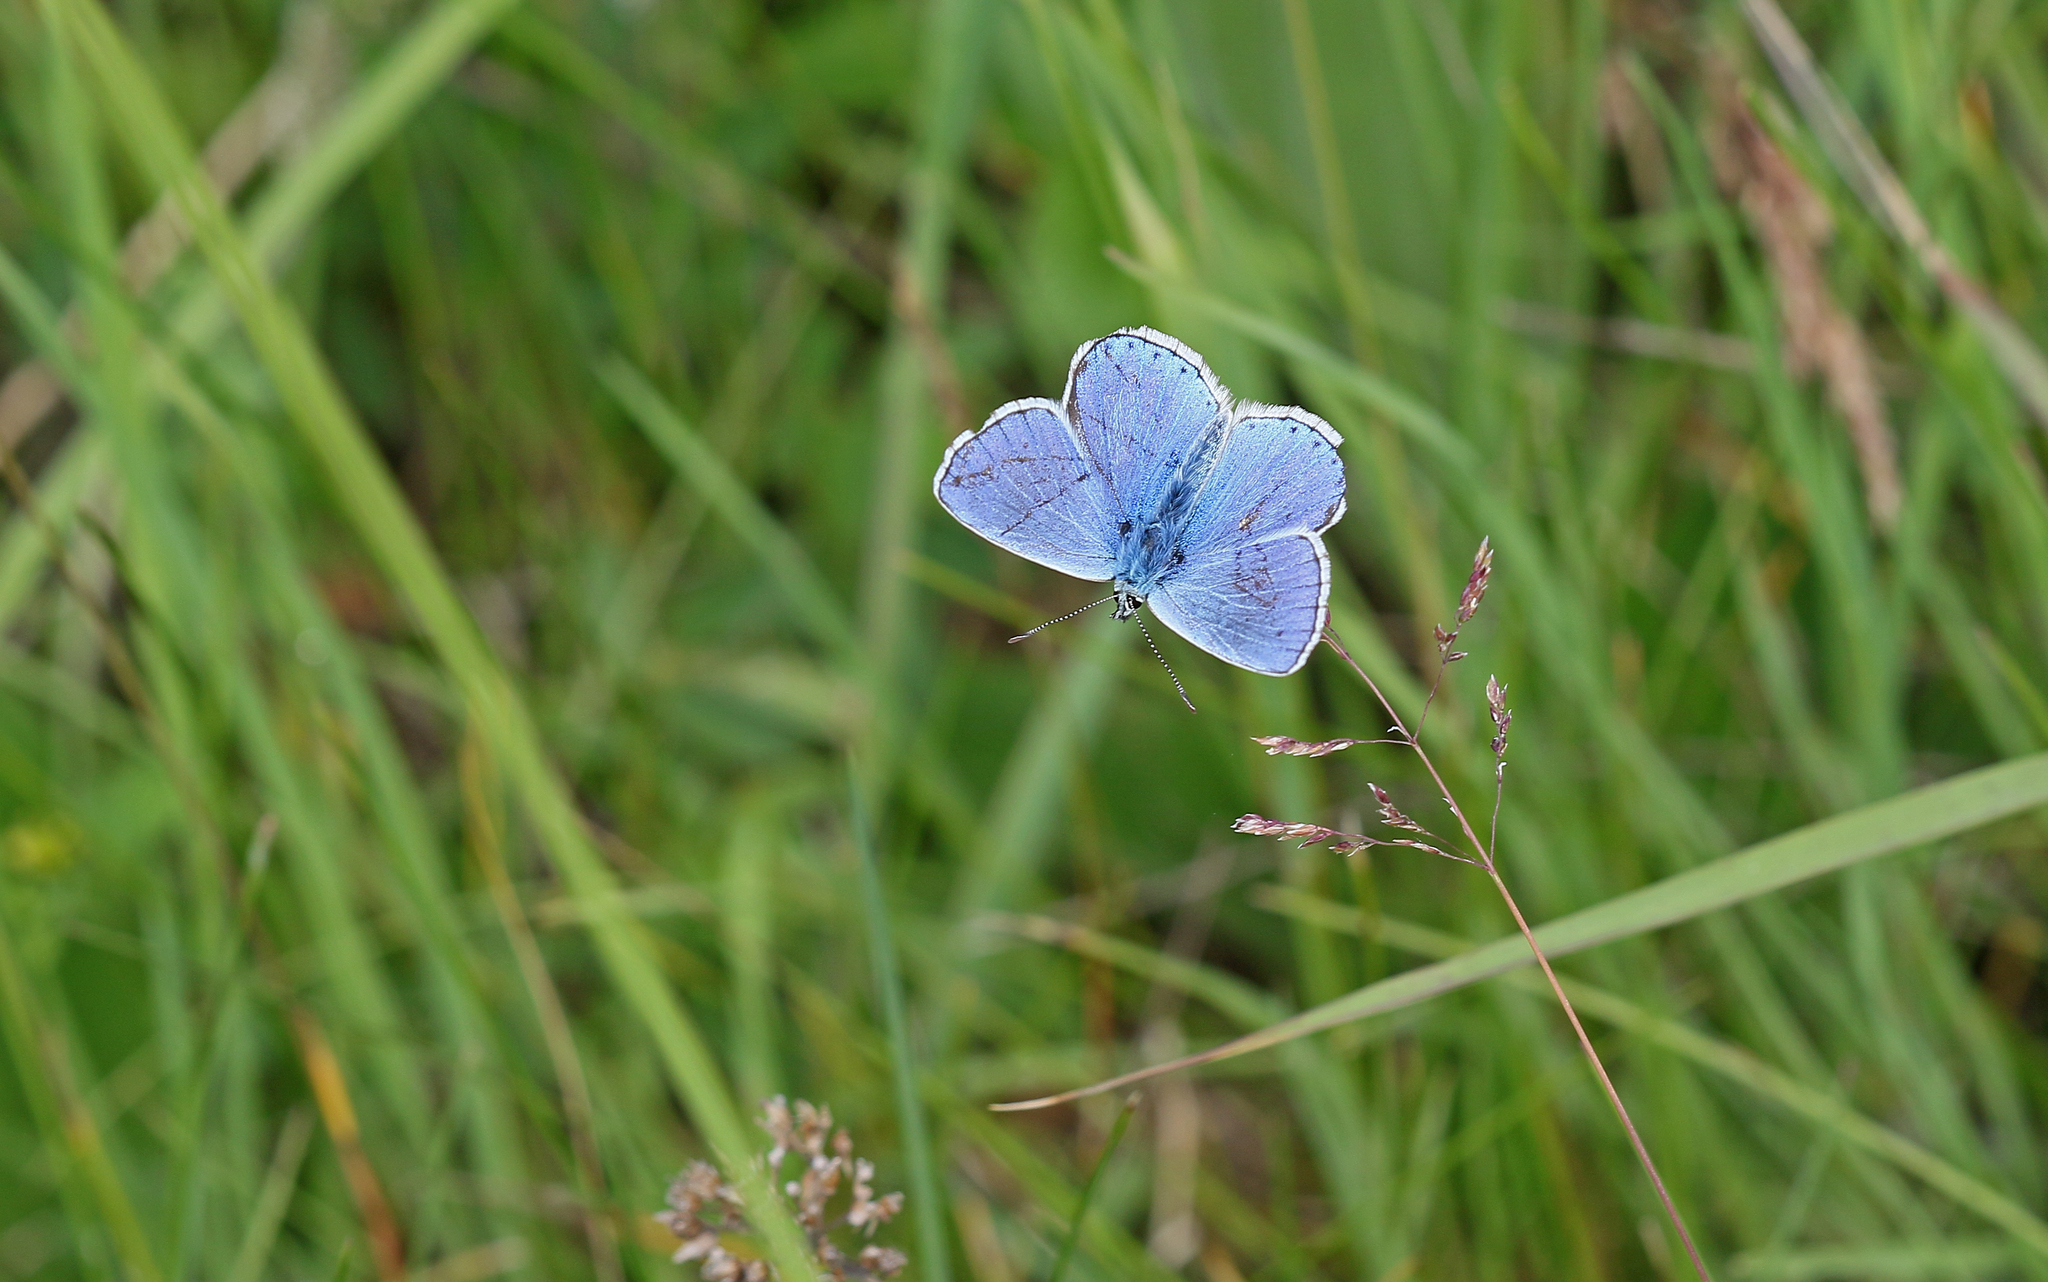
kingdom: Animalia
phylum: Arthropoda
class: Insecta
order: Lepidoptera
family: Lycaenidae
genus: Lysandra
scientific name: Lysandra bellargus
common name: Adonis blue
